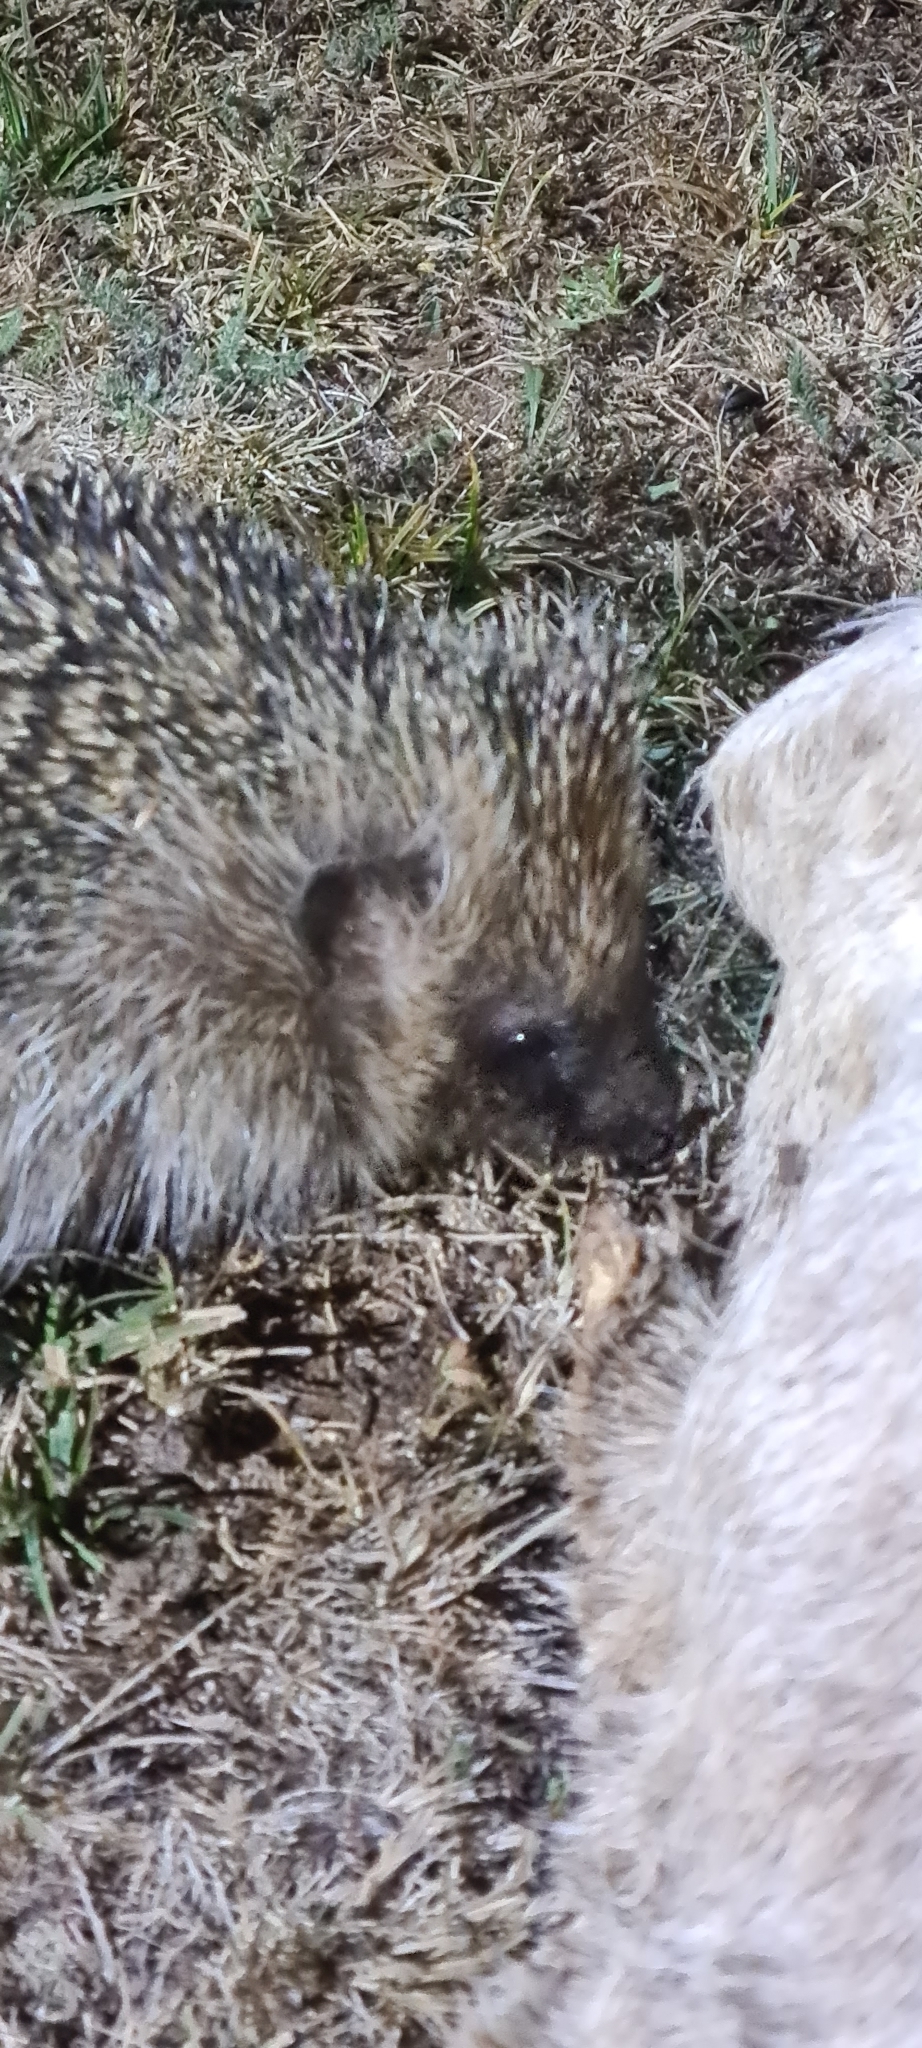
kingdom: Animalia
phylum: Chordata
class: Mammalia
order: Erinaceomorpha
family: Erinaceidae
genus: Erinaceus
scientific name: Erinaceus europaeus
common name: West european hedgehog
